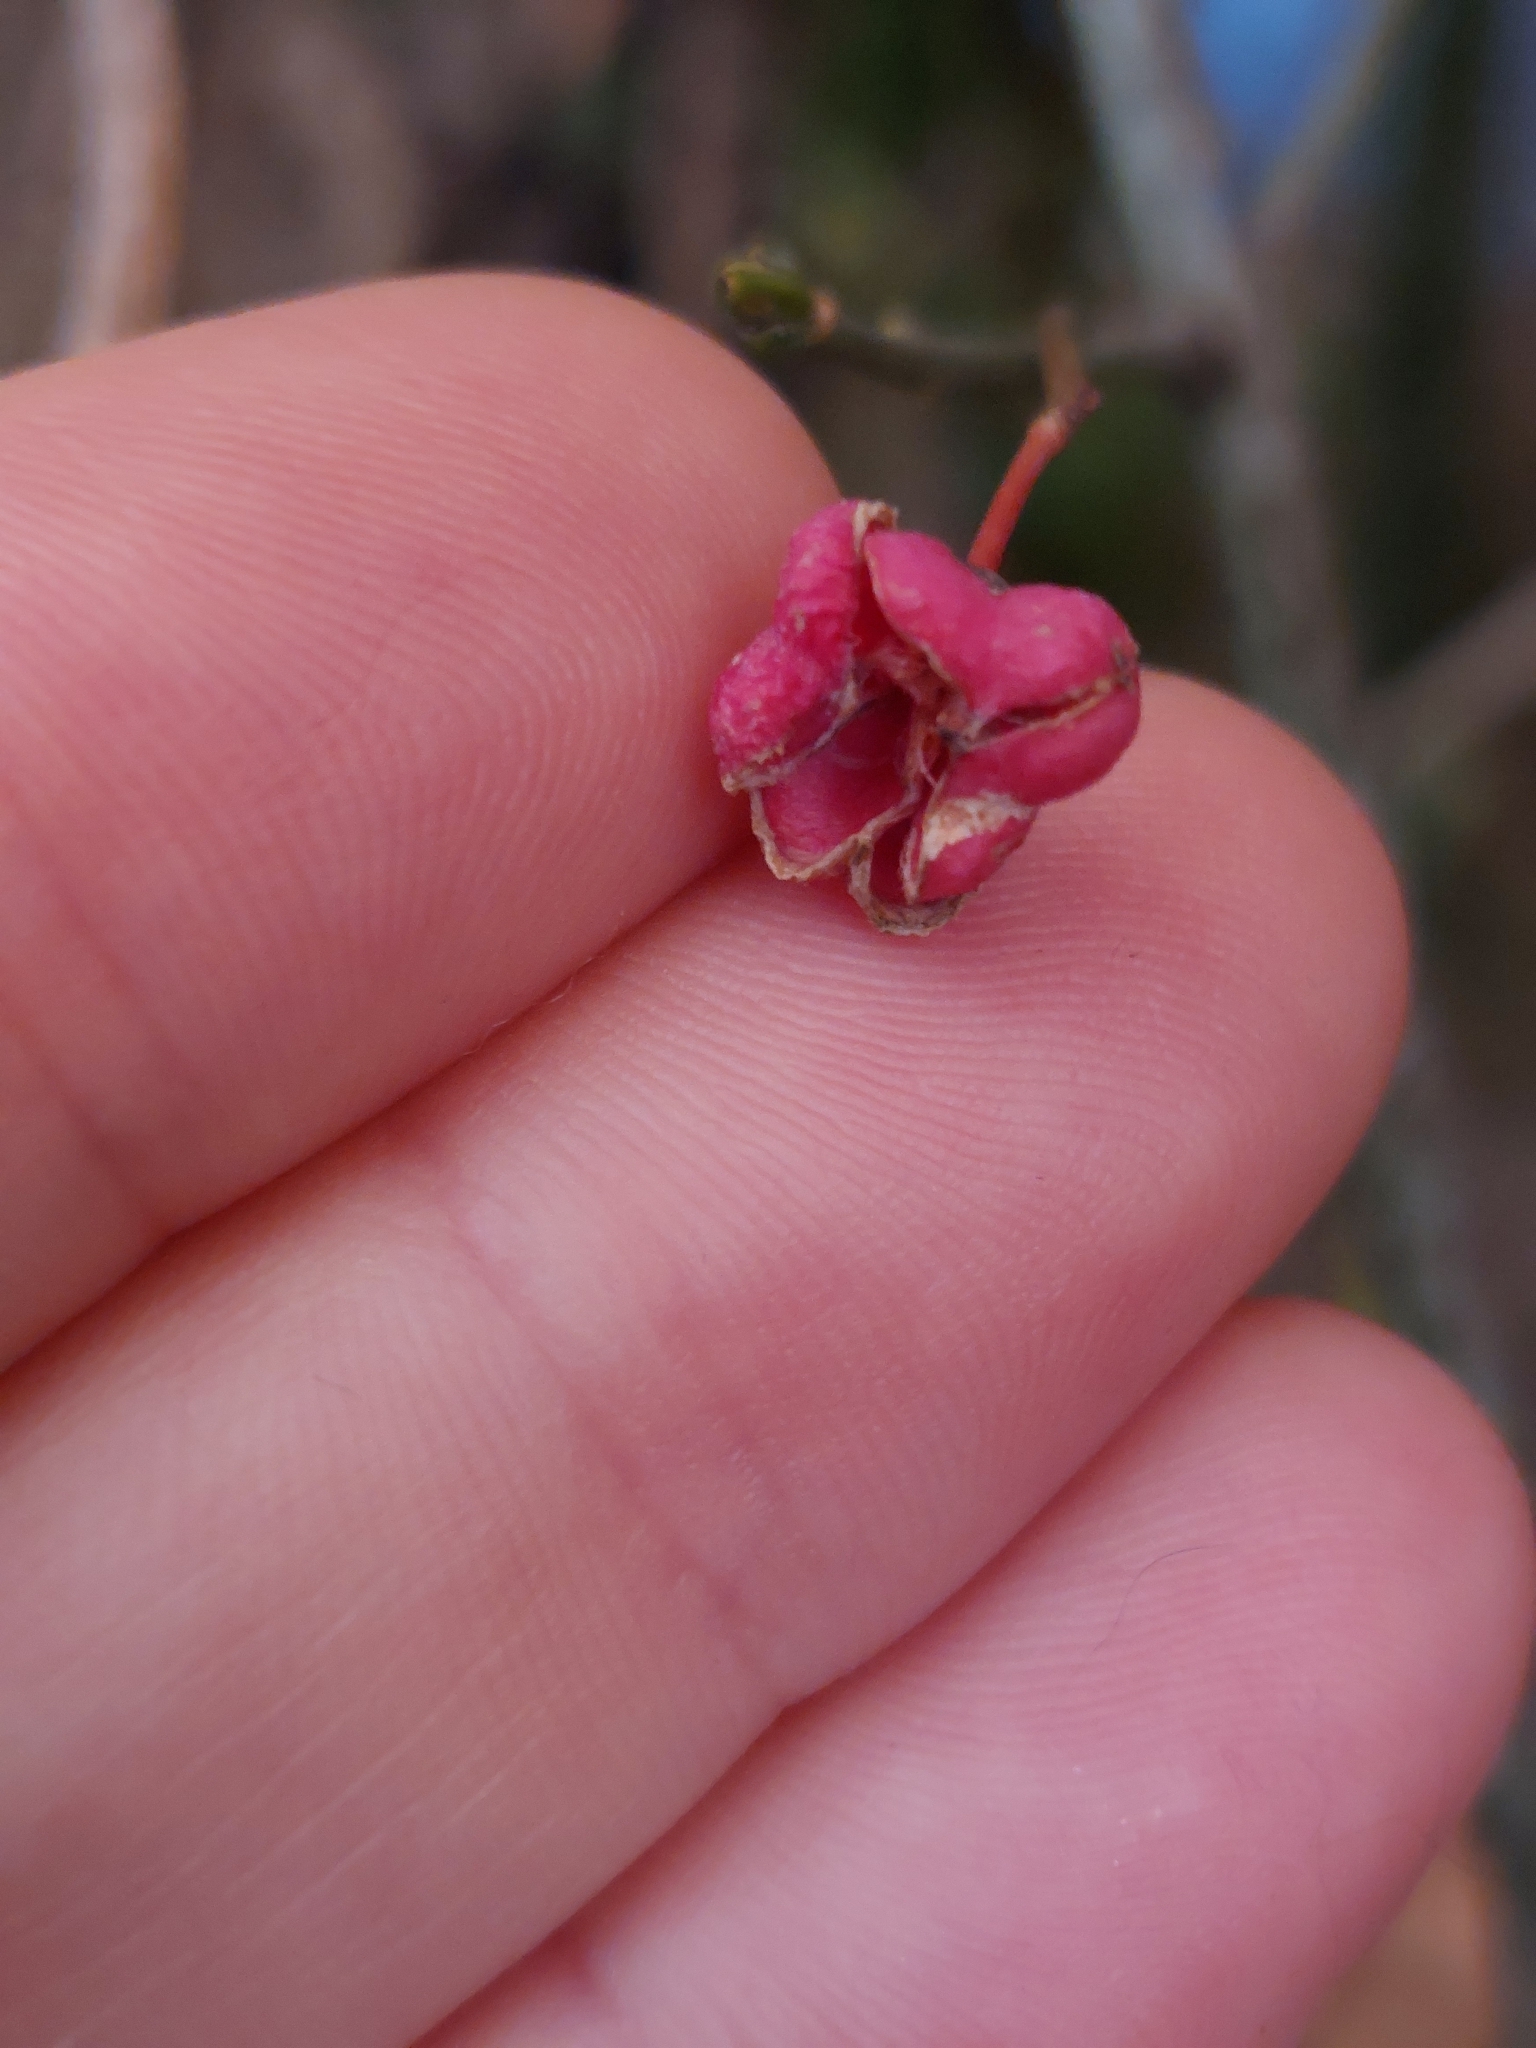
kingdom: Plantae
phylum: Tracheophyta
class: Magnoliopsida
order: Celastrales
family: Celastraceae
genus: Euonymus
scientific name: Euonymus europaeus
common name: Spindle
